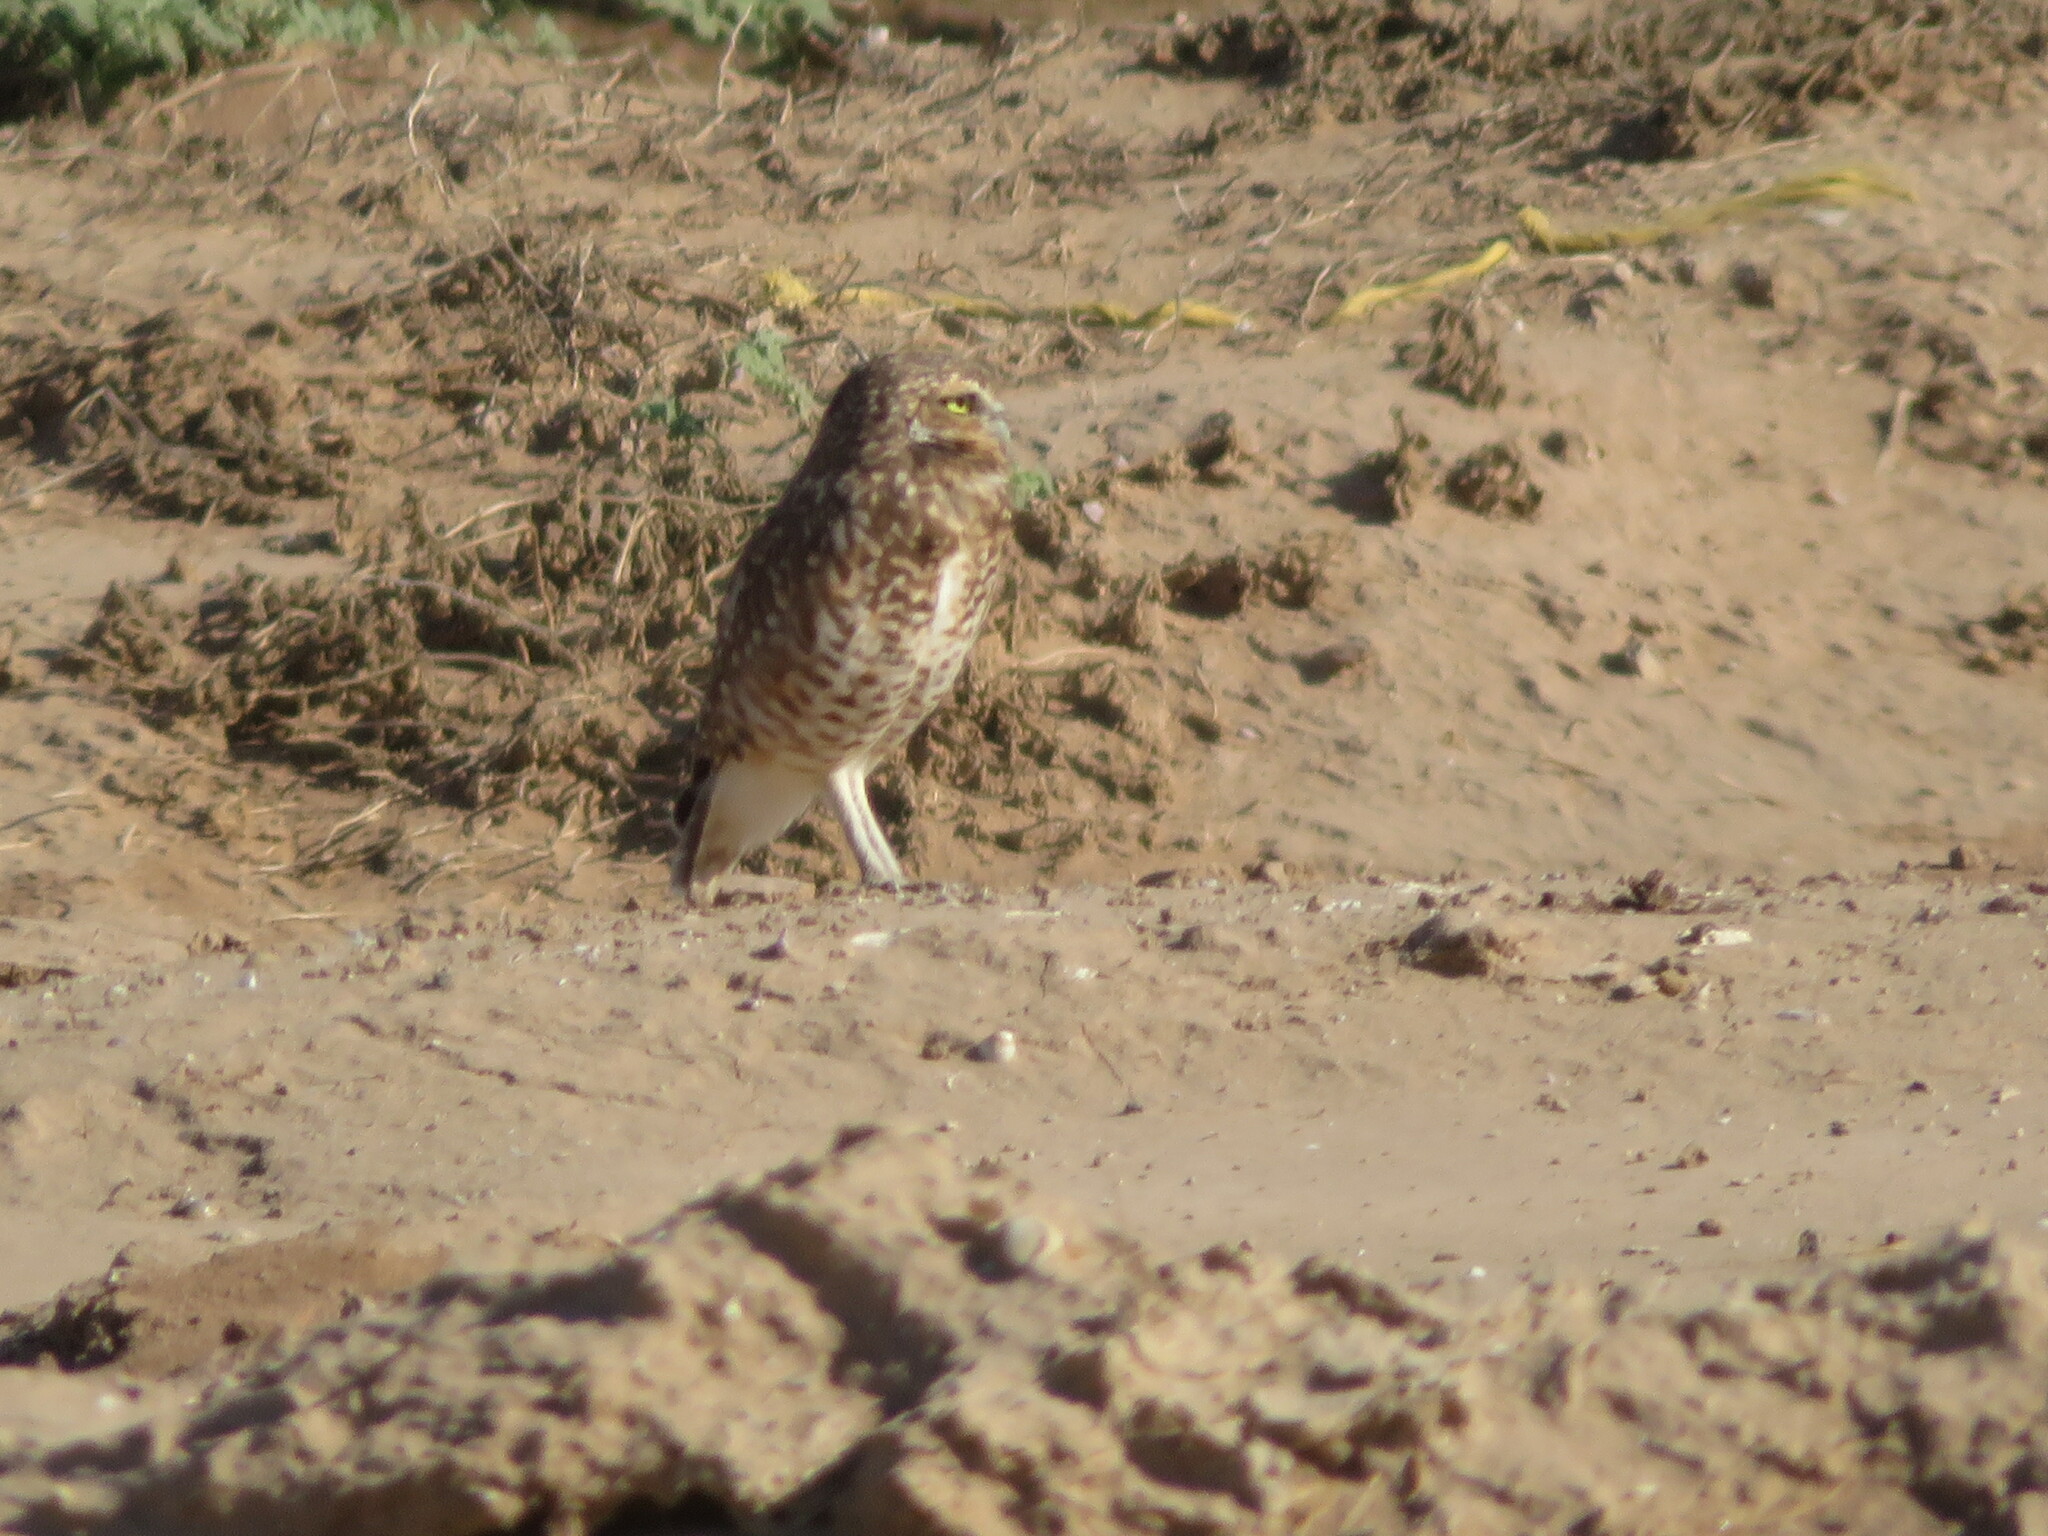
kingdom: Animalia
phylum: Chordata
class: Aves
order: Strigiformes
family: Strigidae
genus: Athene
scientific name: Athene cunicularia
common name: Burrowing owl
